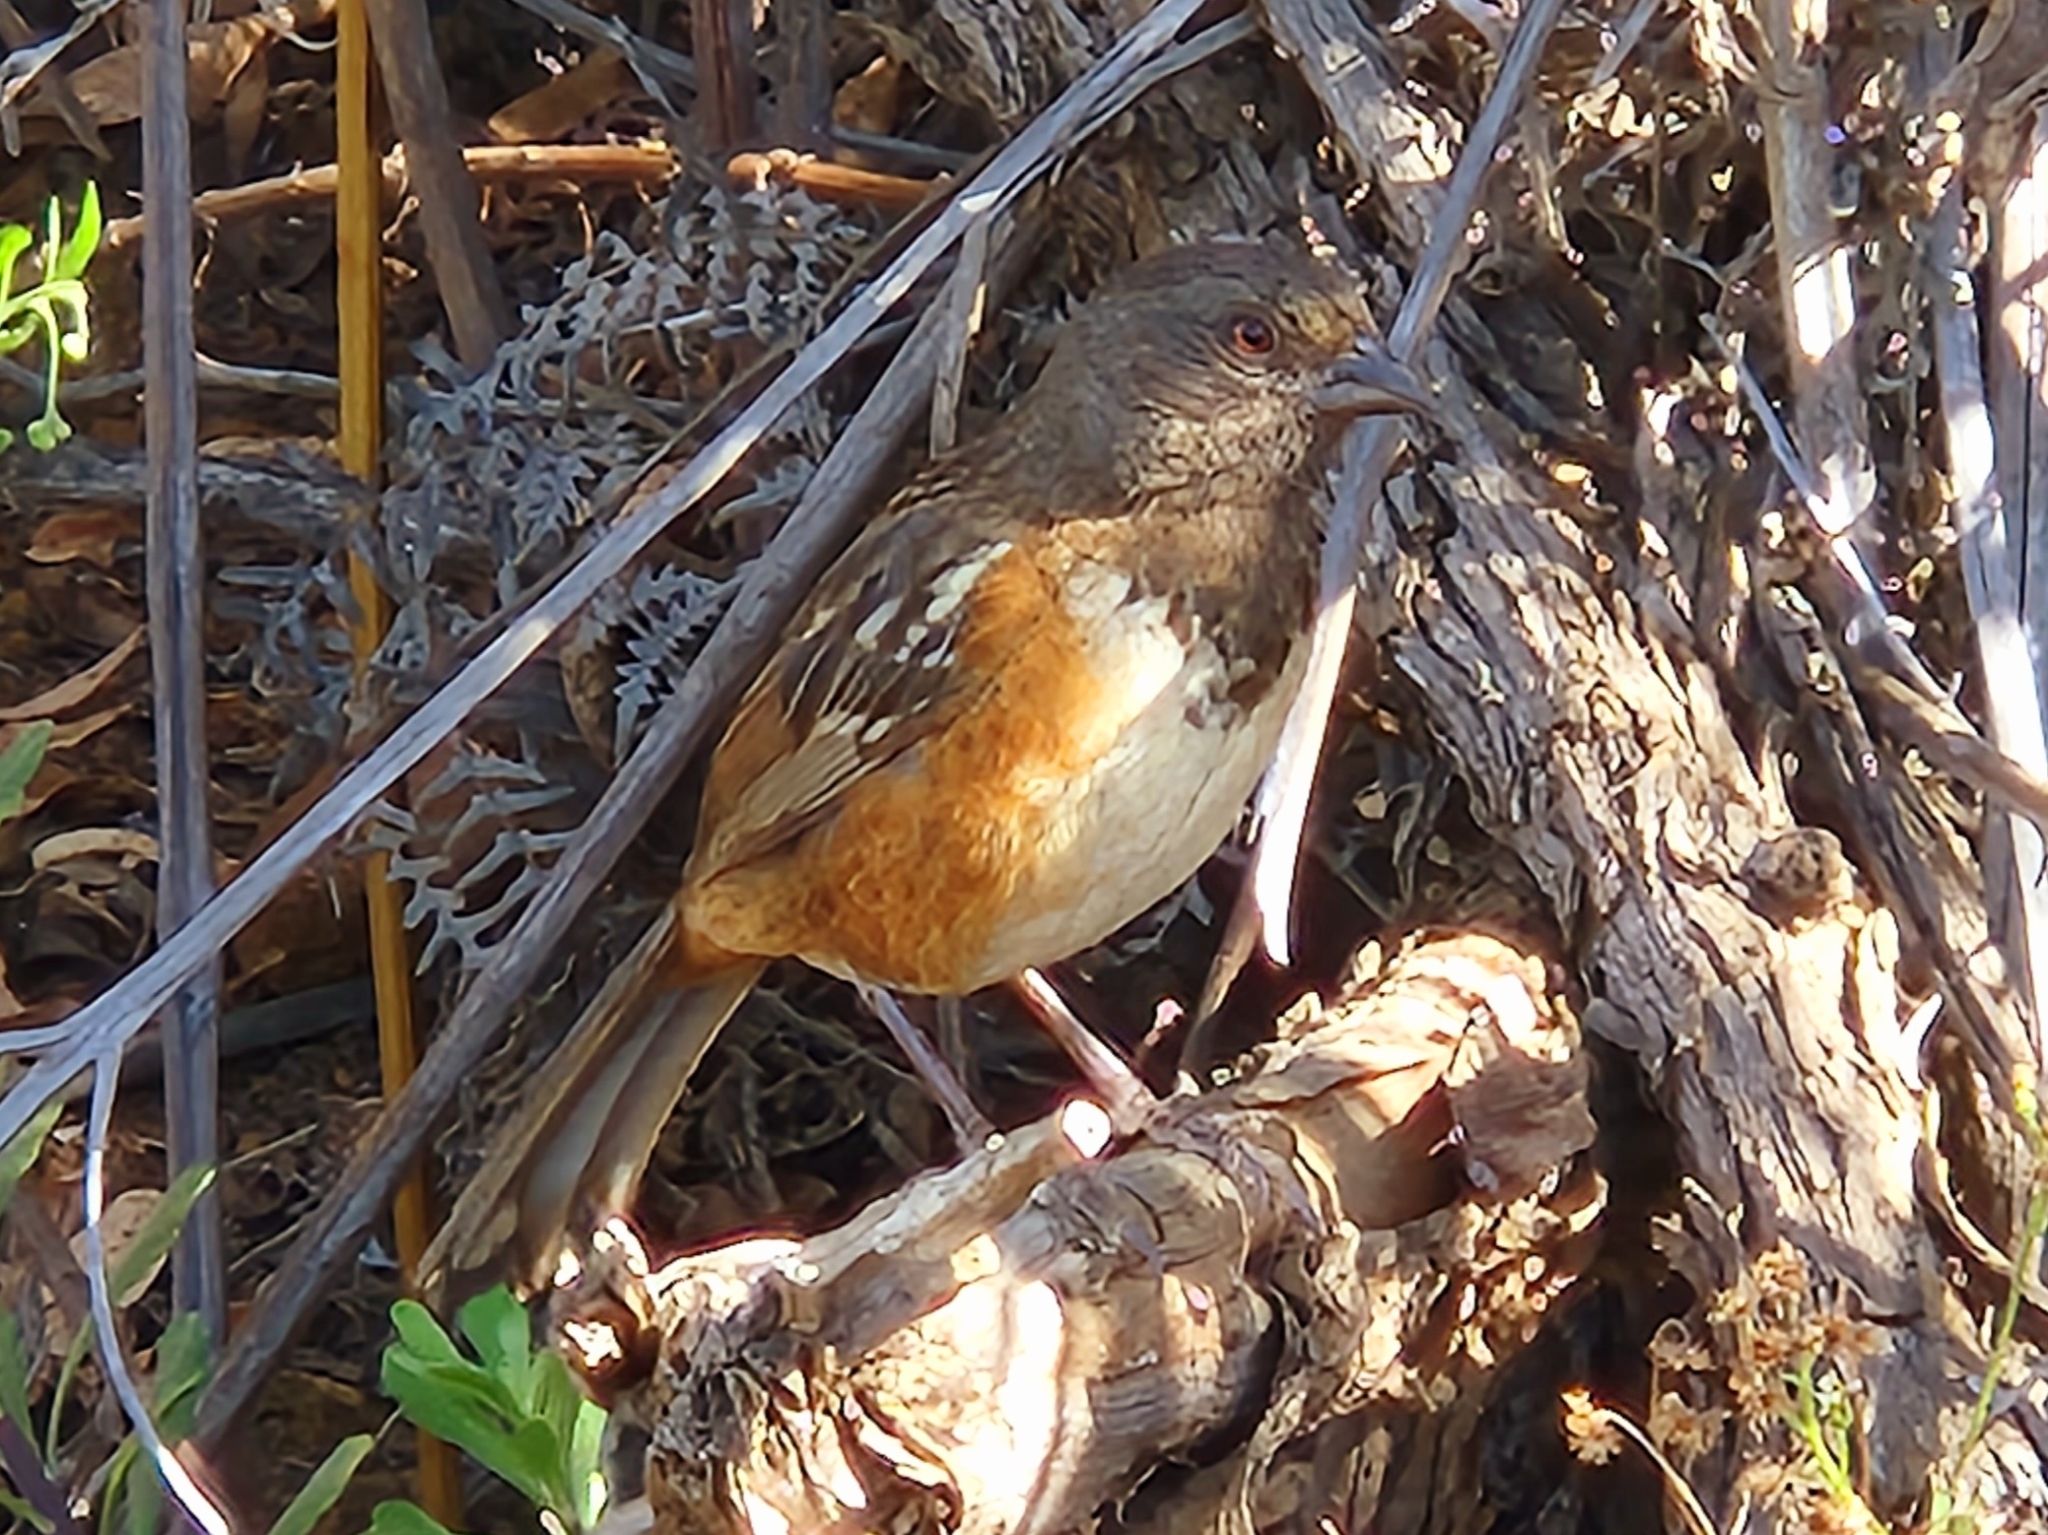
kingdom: Animalia
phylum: Chordata
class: Aves
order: Passeriformes
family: Passerellidae
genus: Pipilo
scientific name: Pipilo maculatus
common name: Spotted towhee
